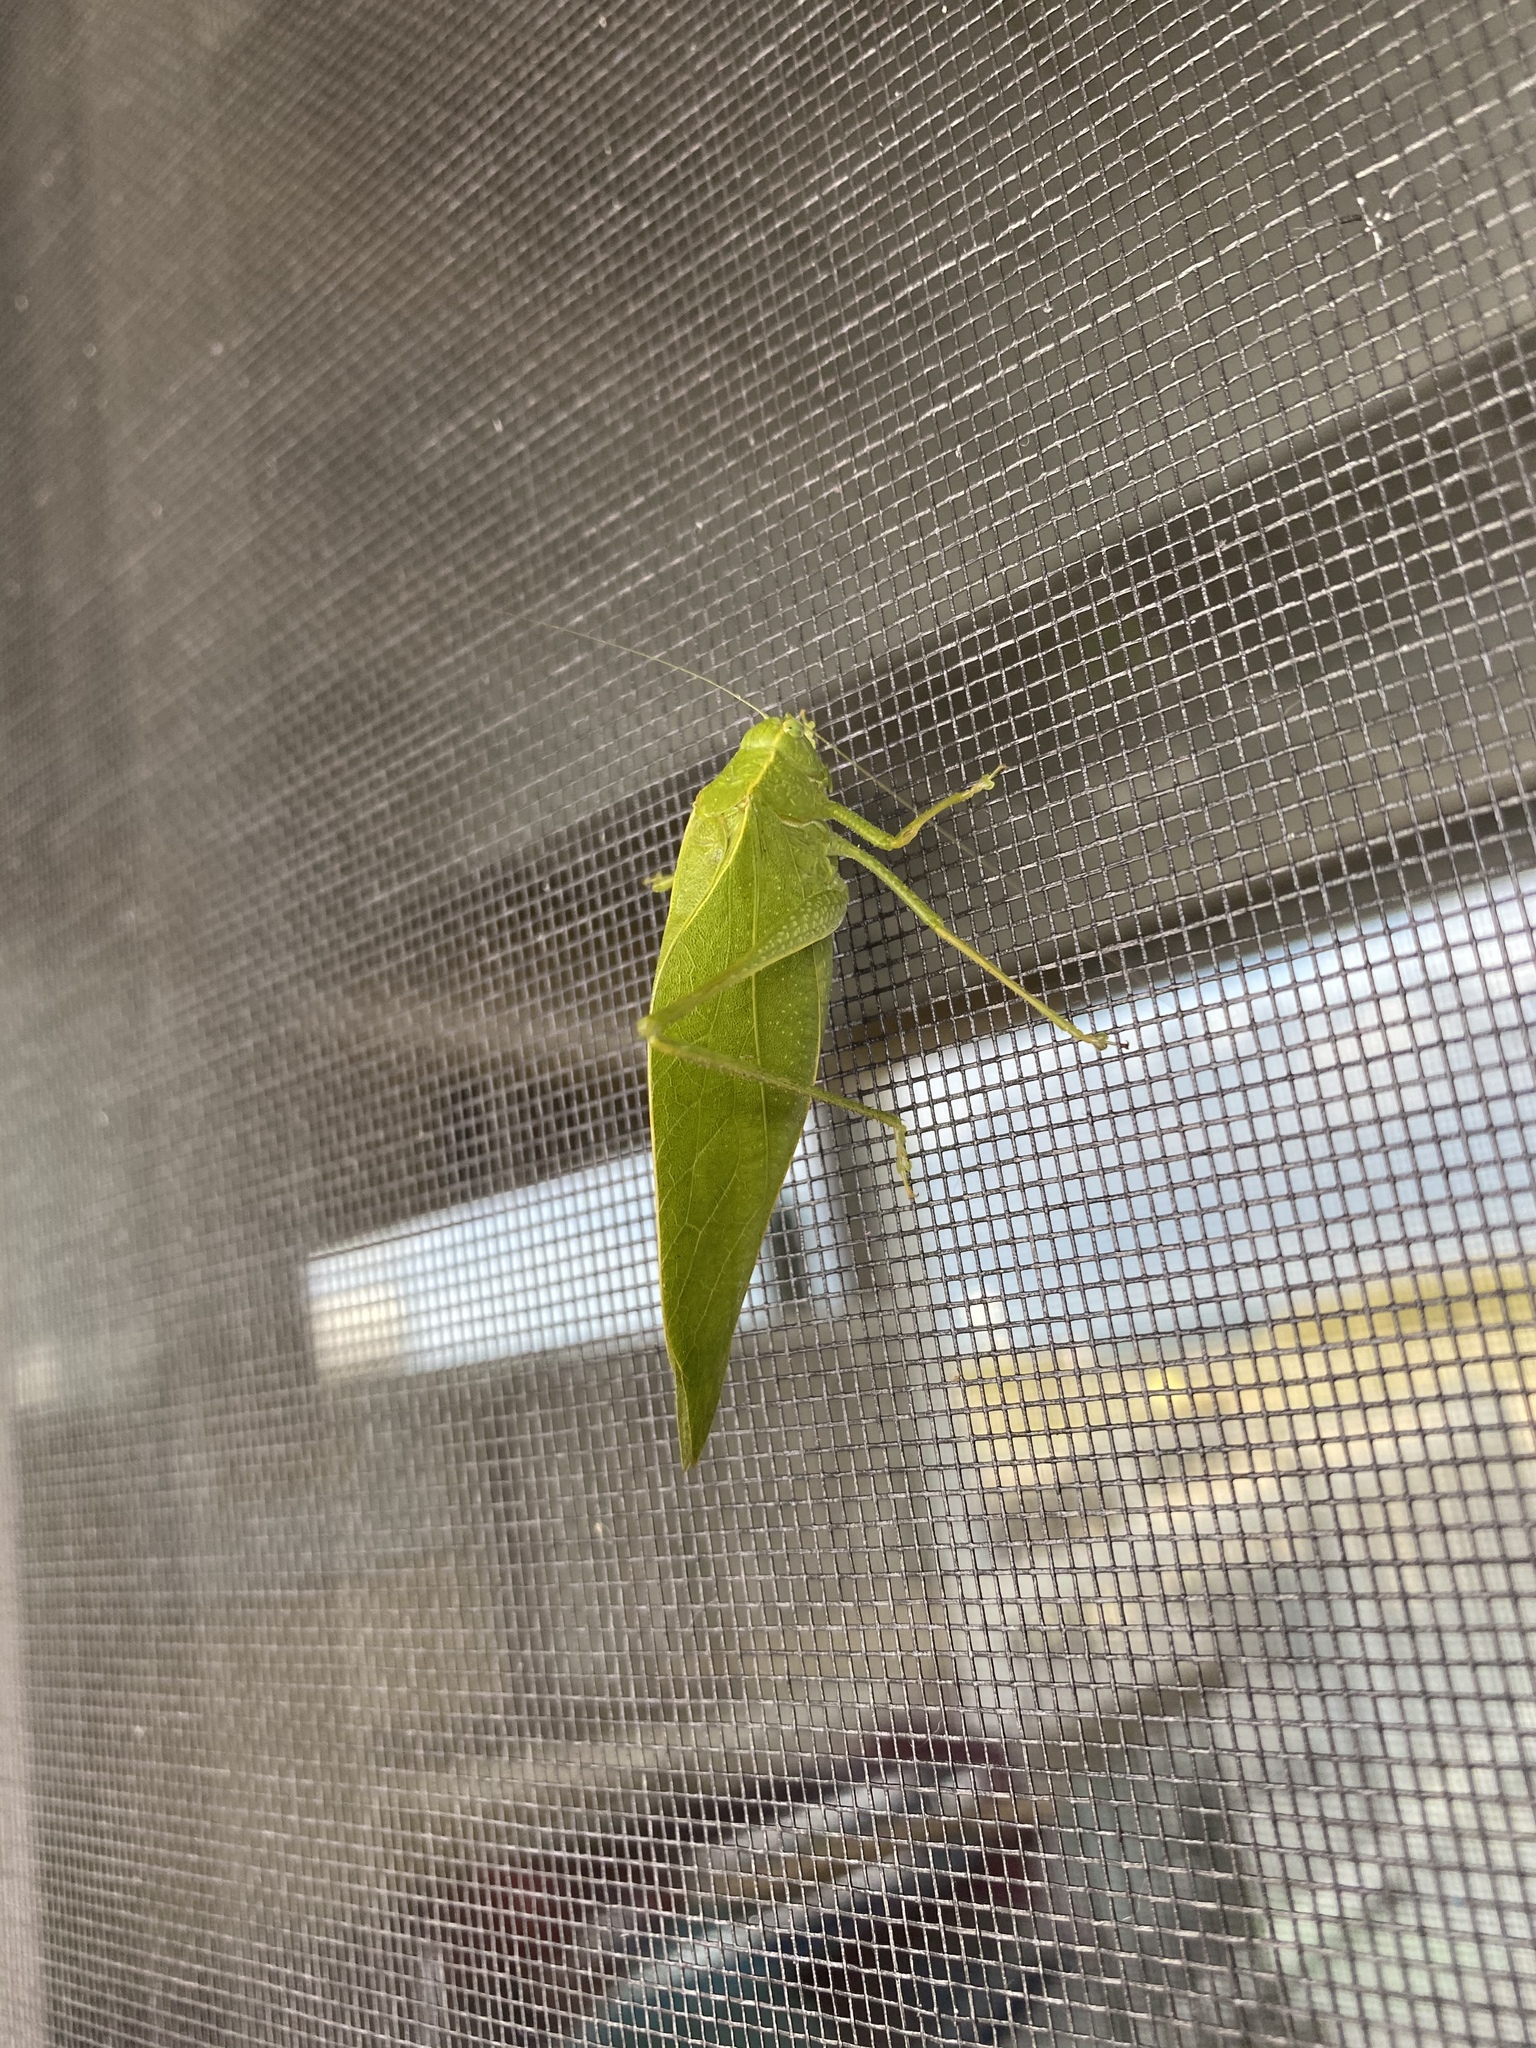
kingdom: Animalia
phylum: Arthropoda
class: Insecta
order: Orthoptera
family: Tettigoniidae
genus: Microcentrum
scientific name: Microcentrum rhombifolium
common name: Broad-winged katydid
